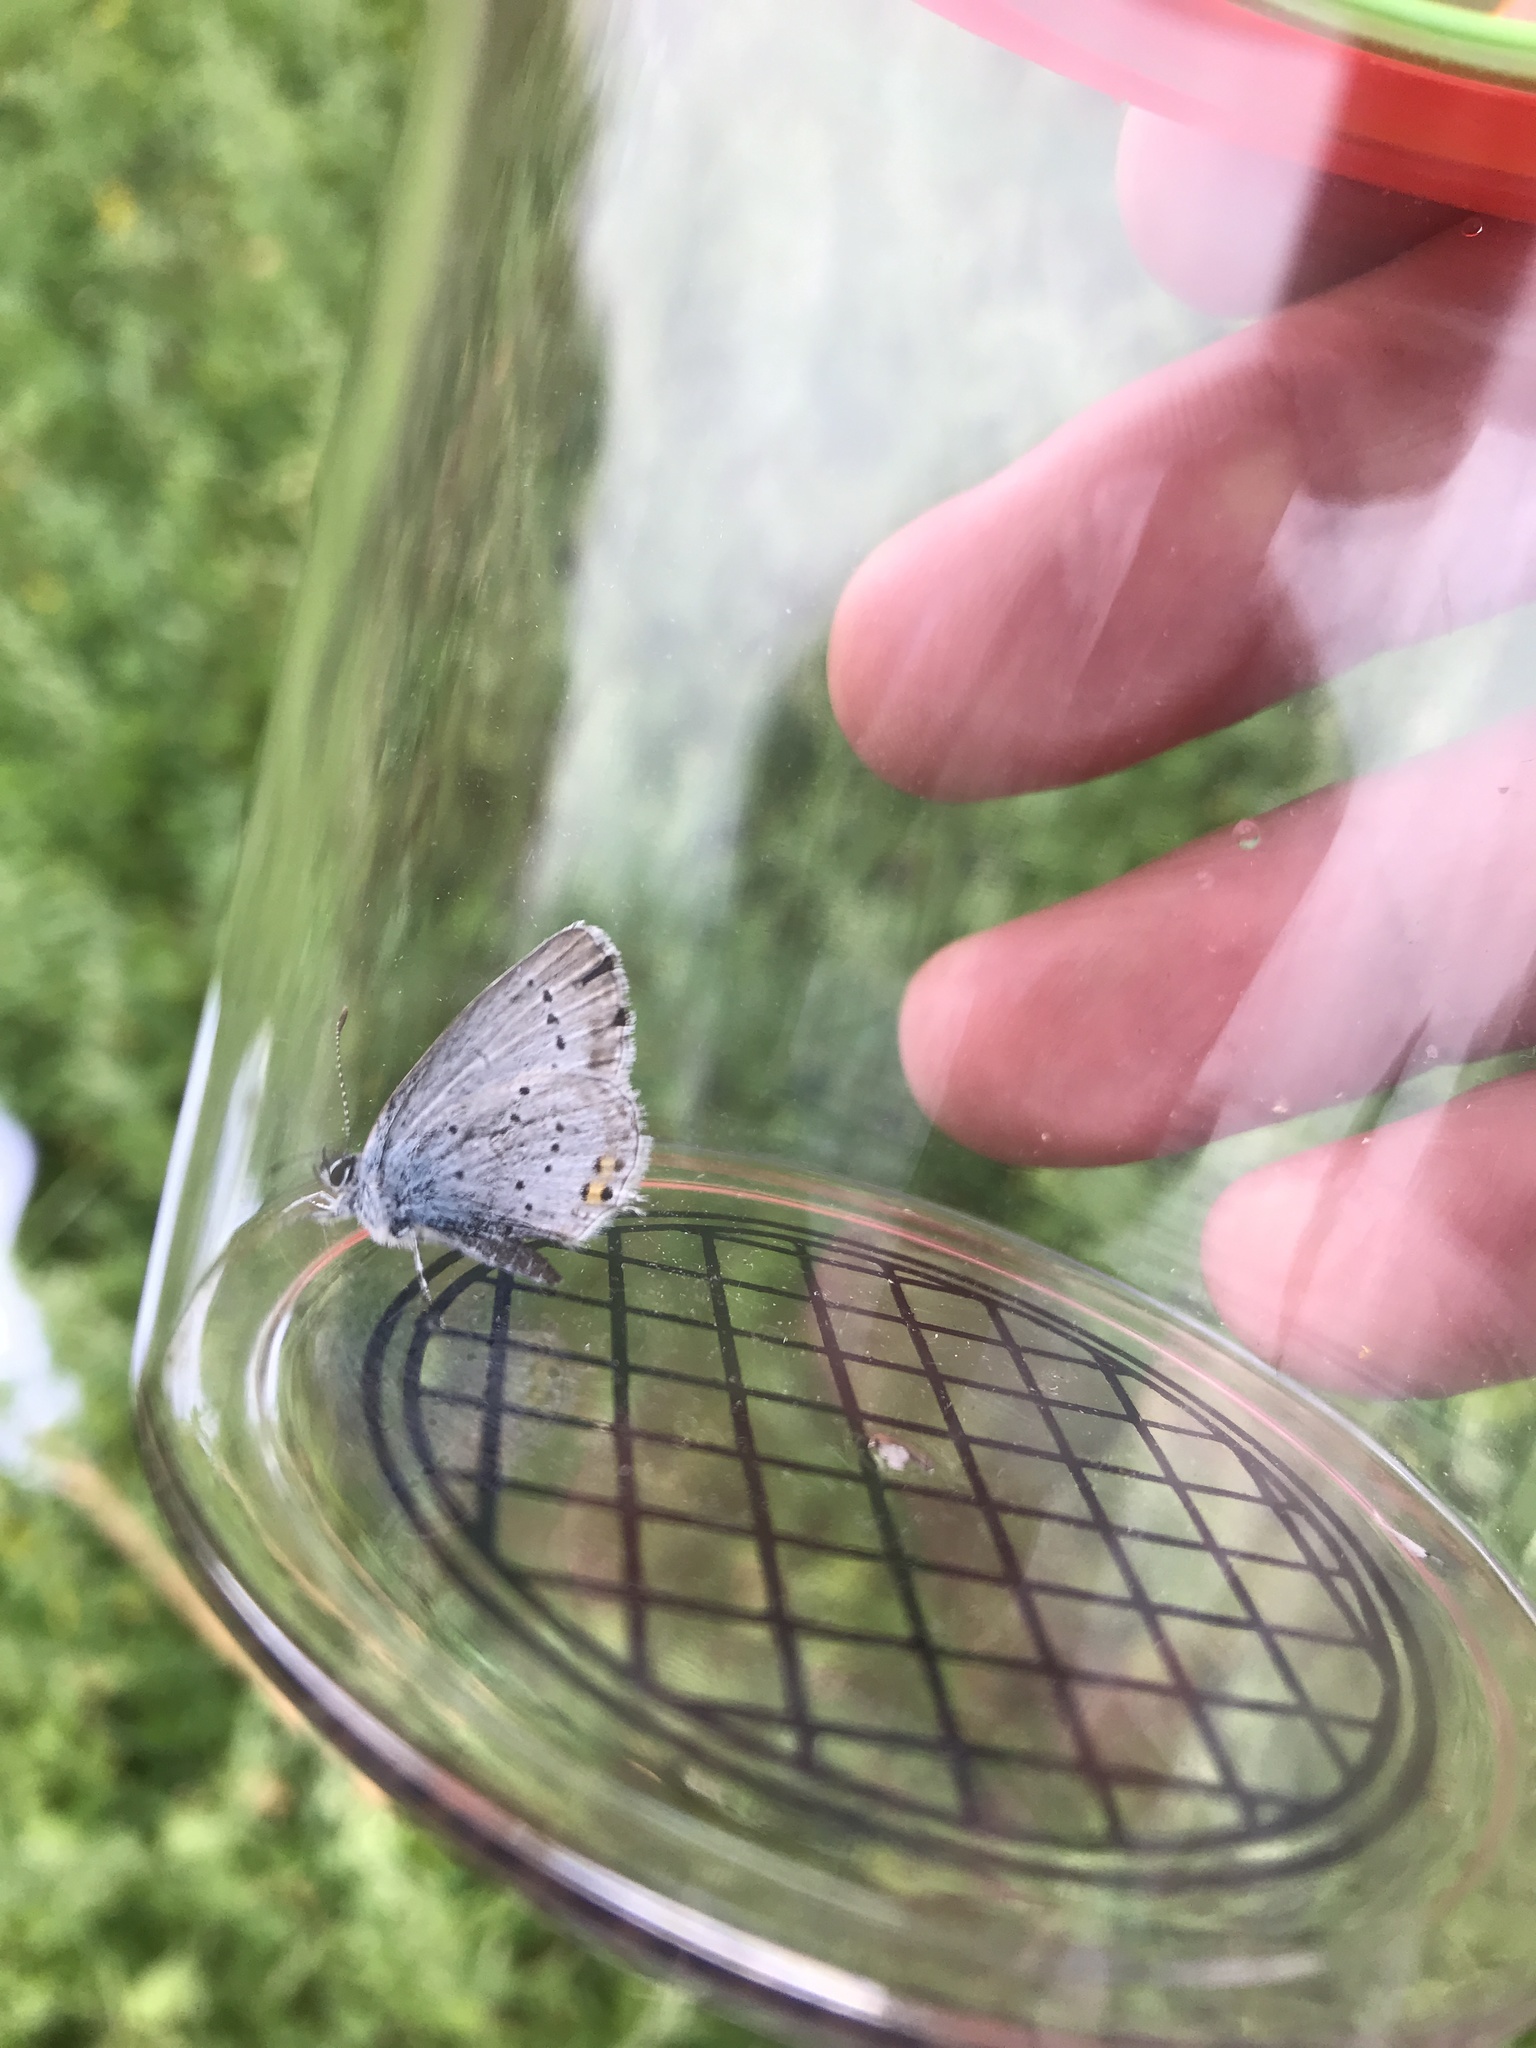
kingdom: Animalia
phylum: Arthropoda
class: Insecta
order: Lepidoptera
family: Lycaenidae
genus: Elkalyce
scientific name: Elkalyce argiades
